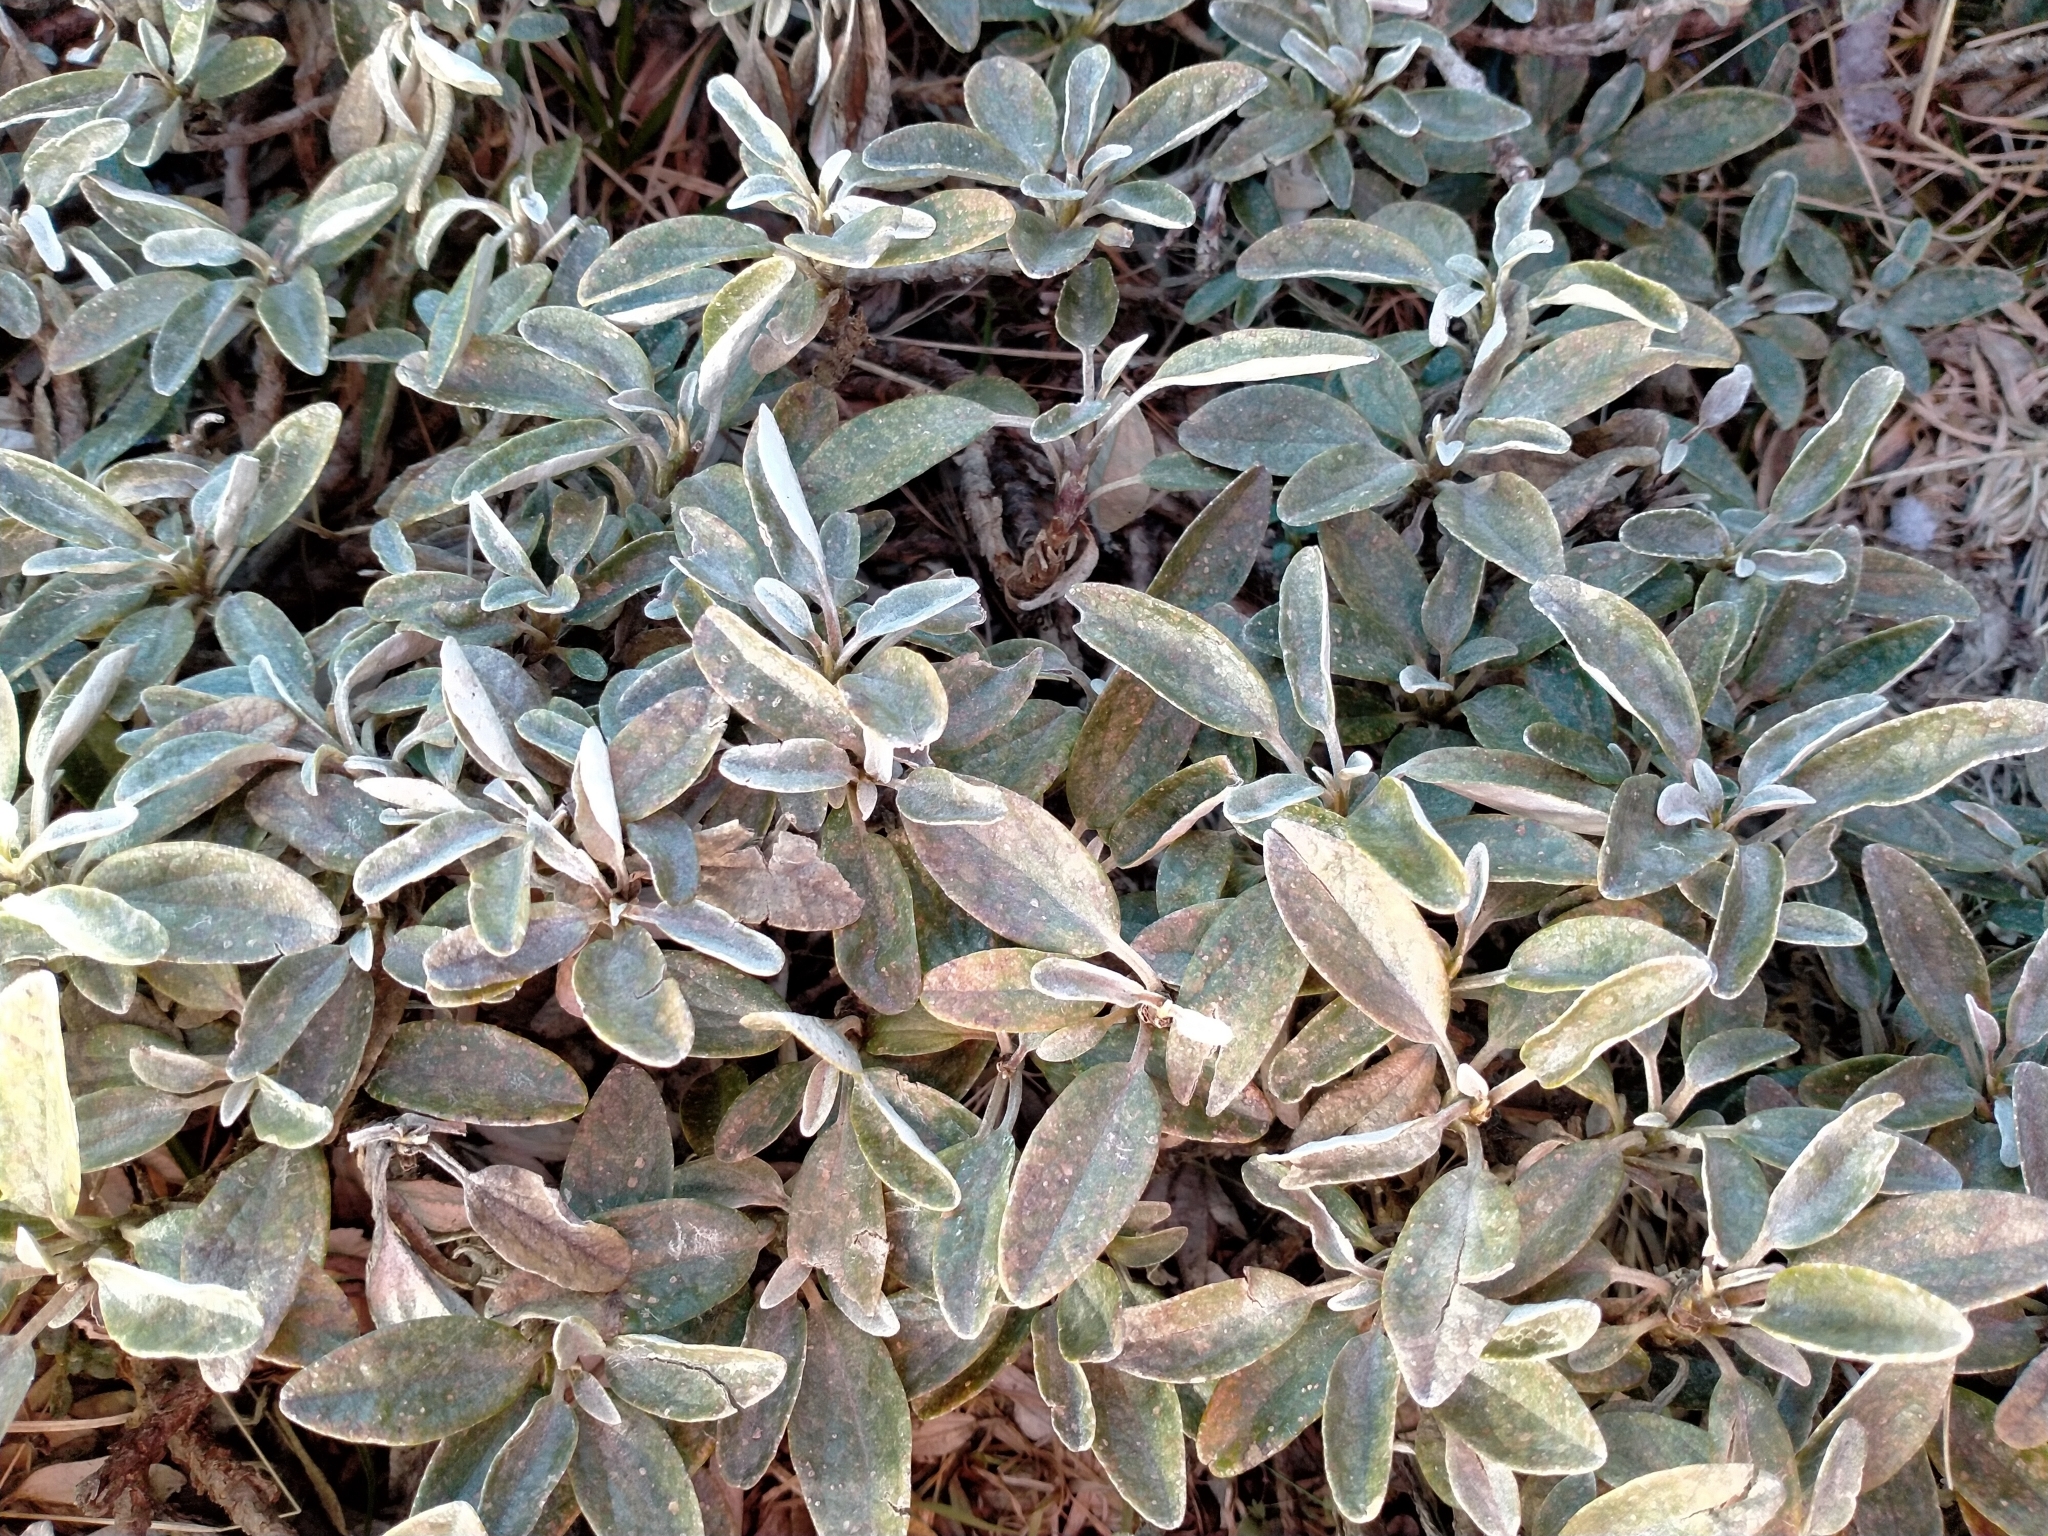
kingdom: Plantae
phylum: Tracheophyta
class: Magnoliopsida
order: Asterales
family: Asteraceae
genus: Brachyglottis
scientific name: Brachyglottis revoluta
